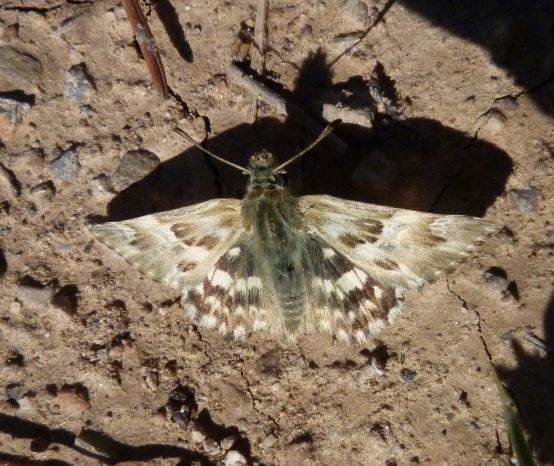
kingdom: Animalia
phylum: Arthropoda
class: Insecta
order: Lepidoptera
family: Hesperiidae
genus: Carcharodus
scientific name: Carcharodus lavatherae
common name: Marbled skipper
